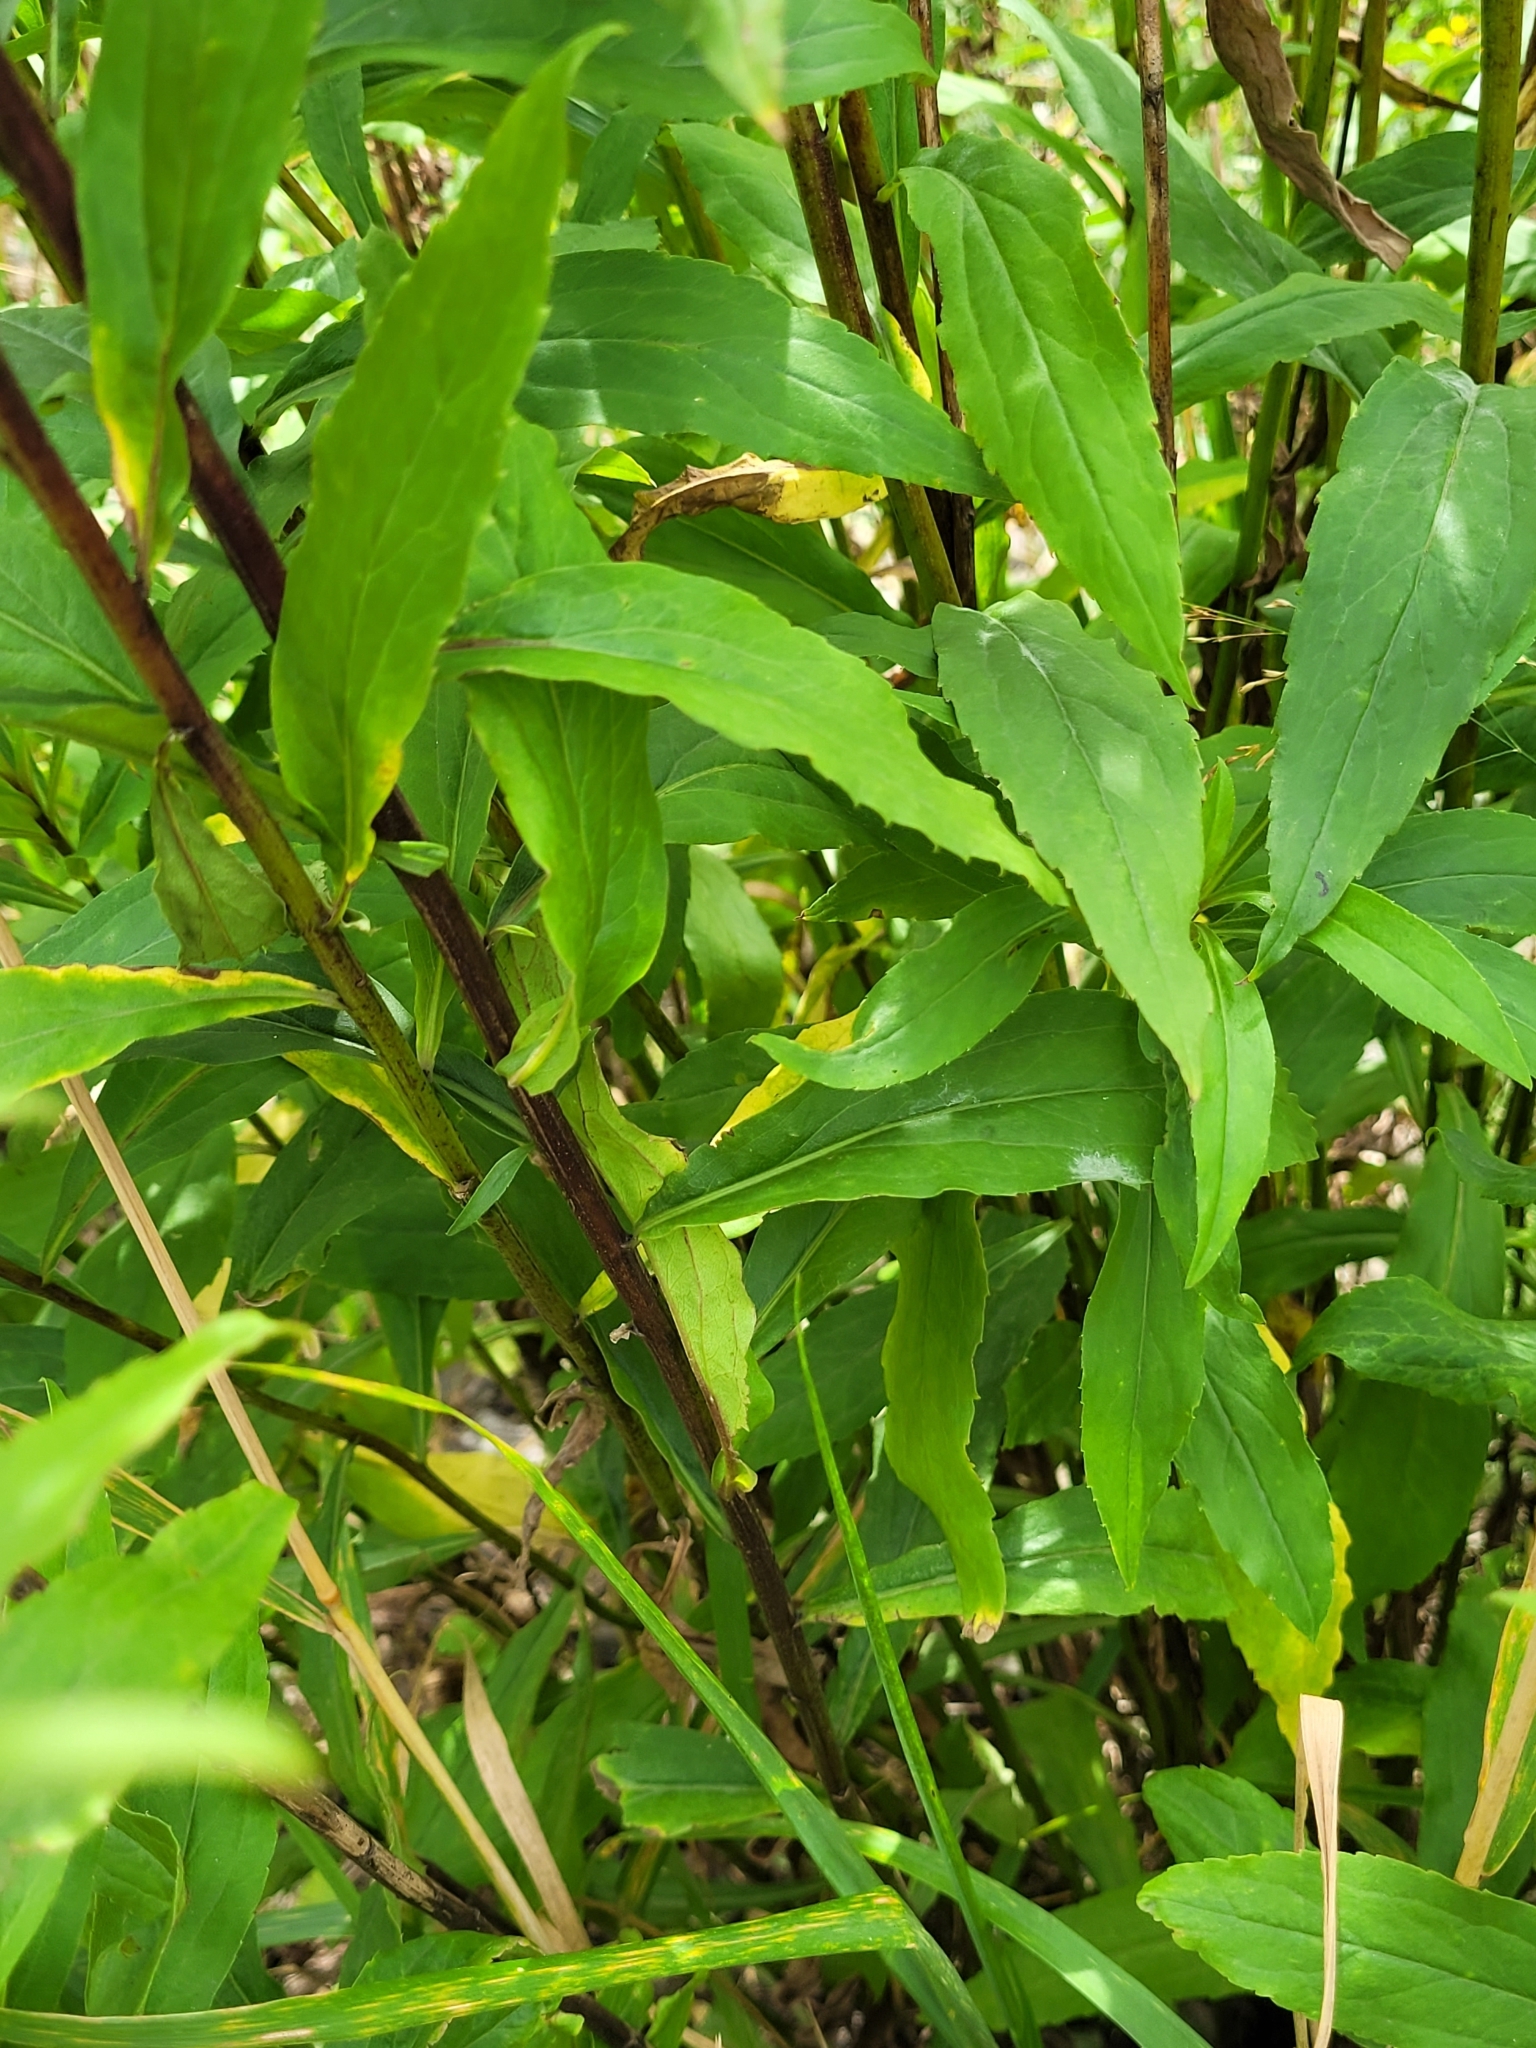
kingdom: Plantae
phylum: Tracheophyta
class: Magnoliopsida
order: Asterales
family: Asteraceae
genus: Solidago
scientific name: Solidago snarskisii
